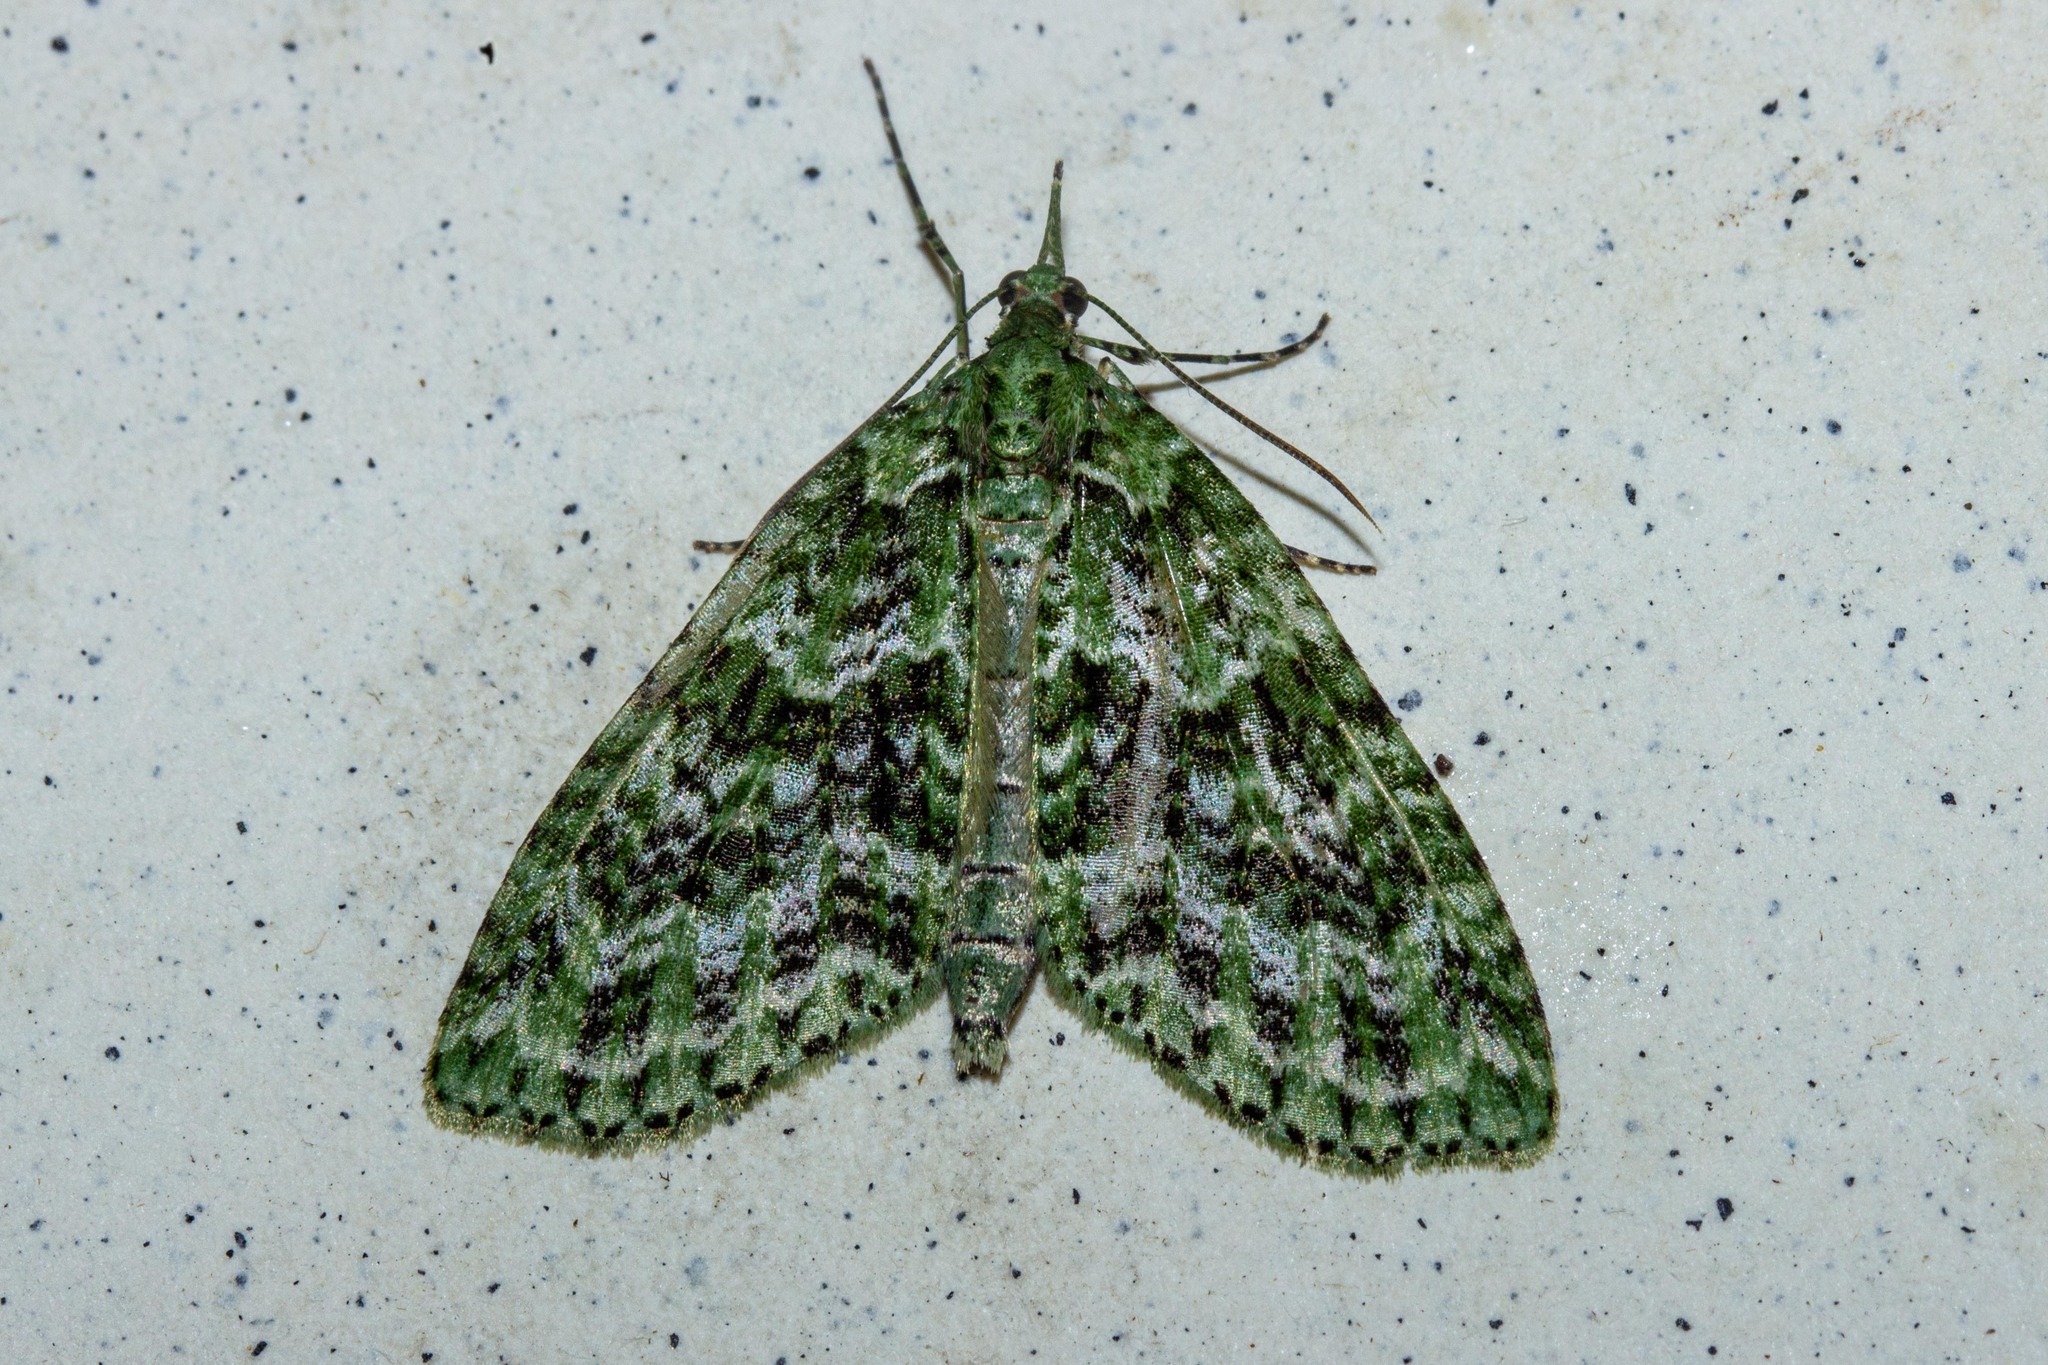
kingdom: Animalia
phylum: Arthropoda
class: Insecta
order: Lepidoptera
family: Geometridae
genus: Tatosoma
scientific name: Tatosoma tipulata
